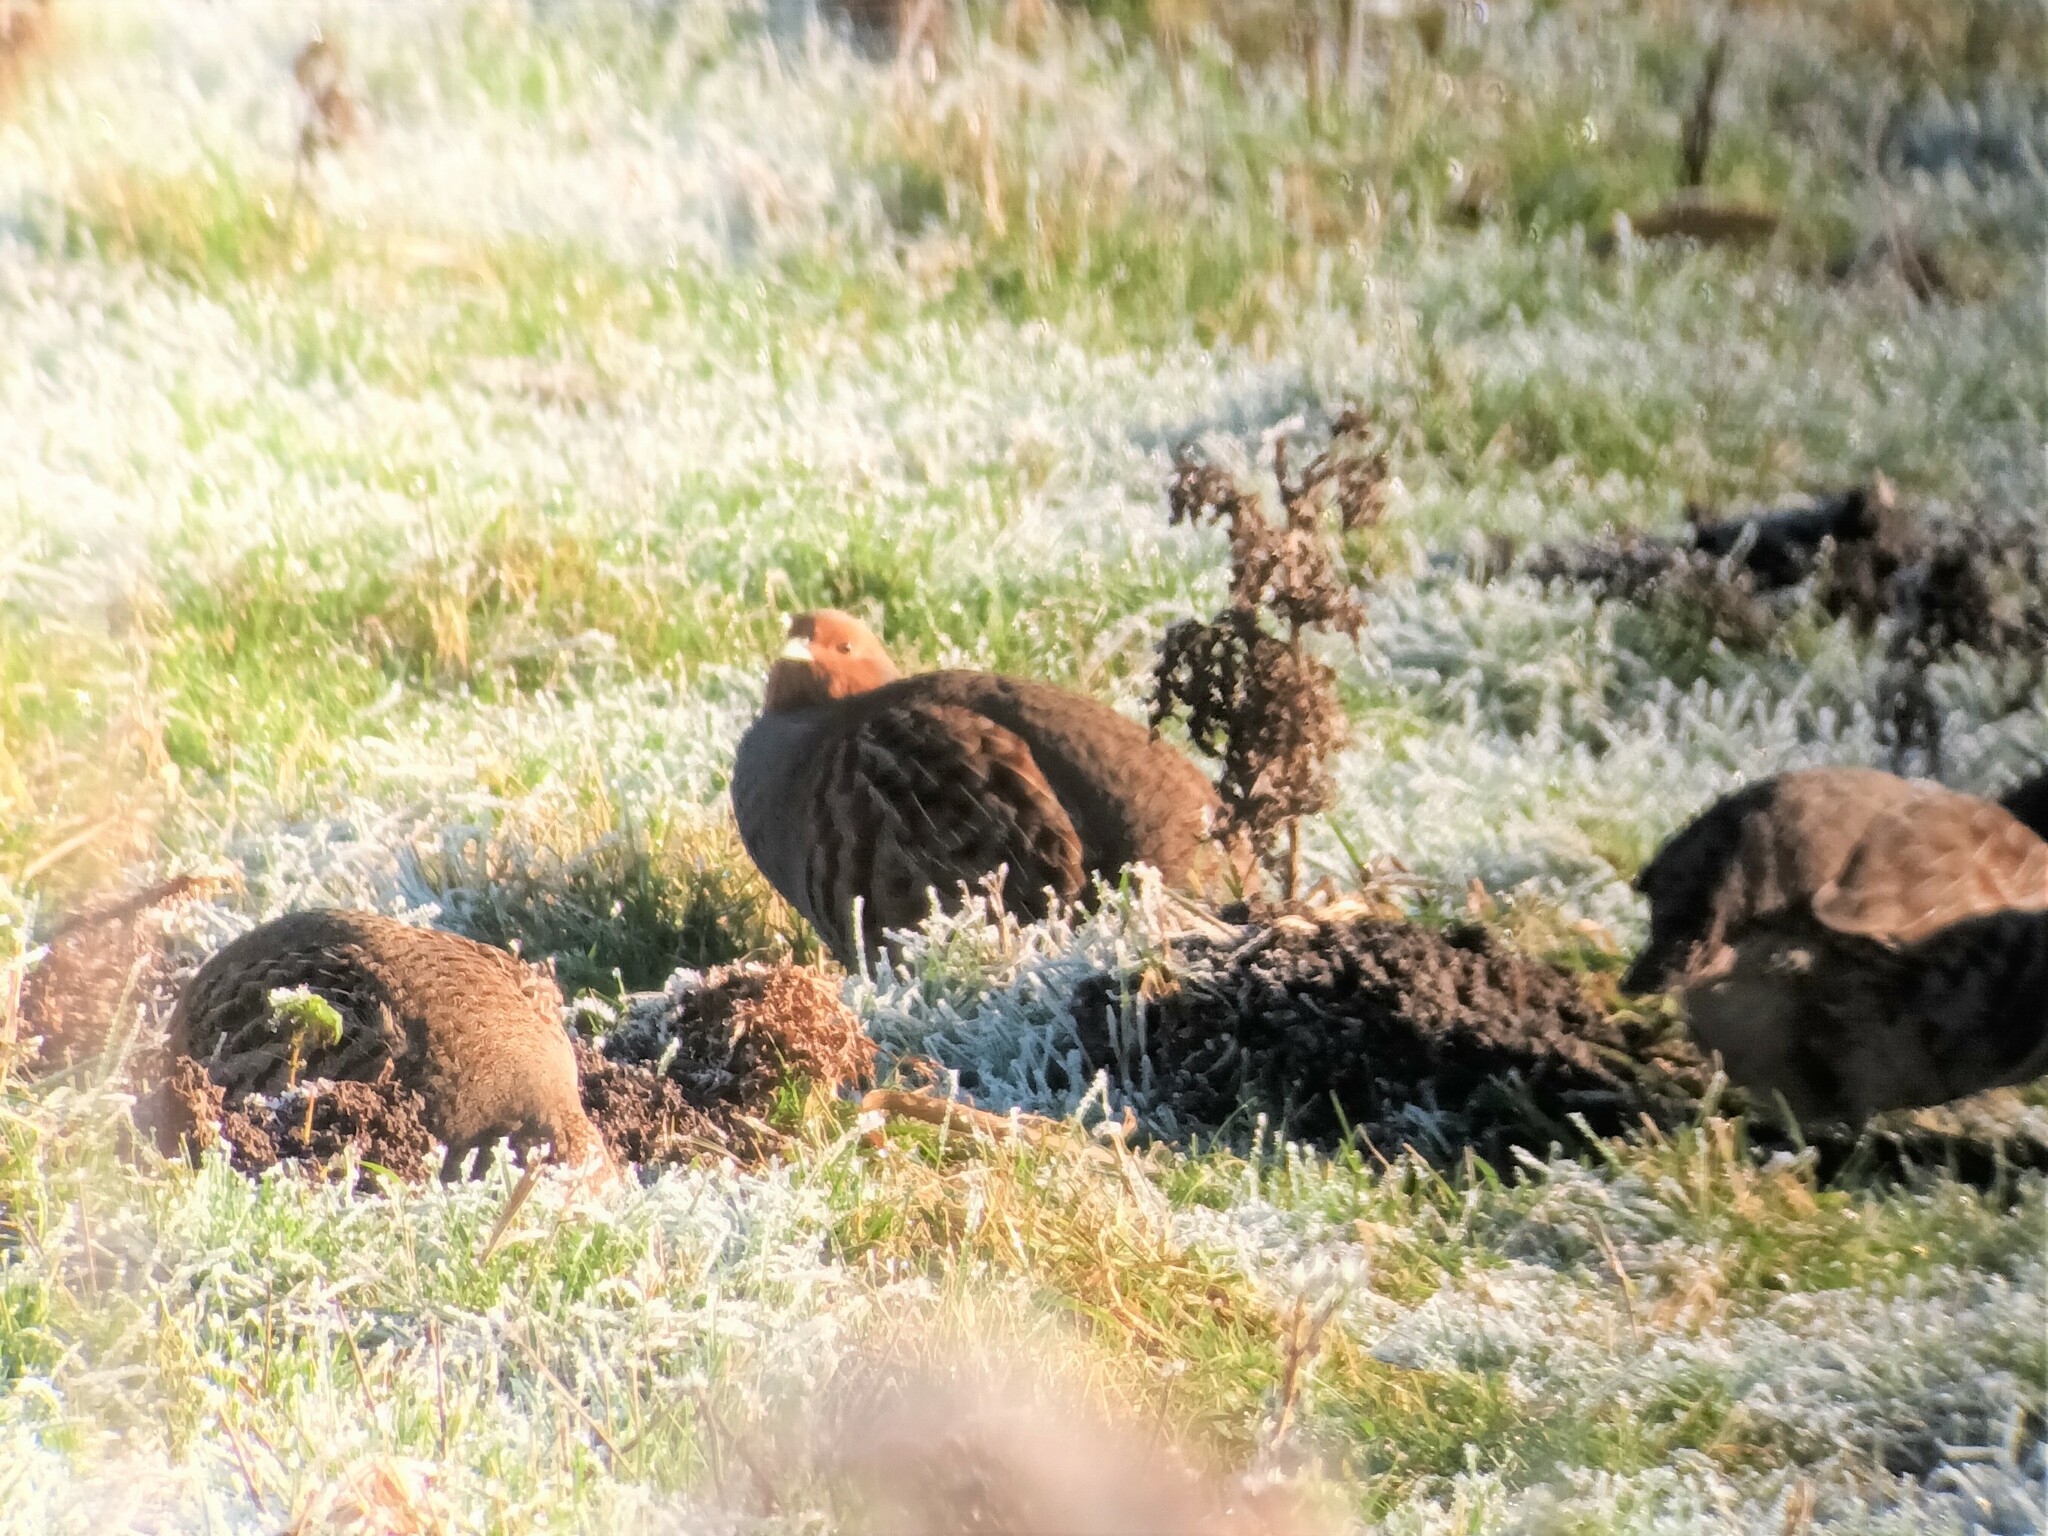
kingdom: Animalia
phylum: Chordata
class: Aves
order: Galliformes
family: Phasianidae
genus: Perdix
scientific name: Perdix perdix
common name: Grey partridge
